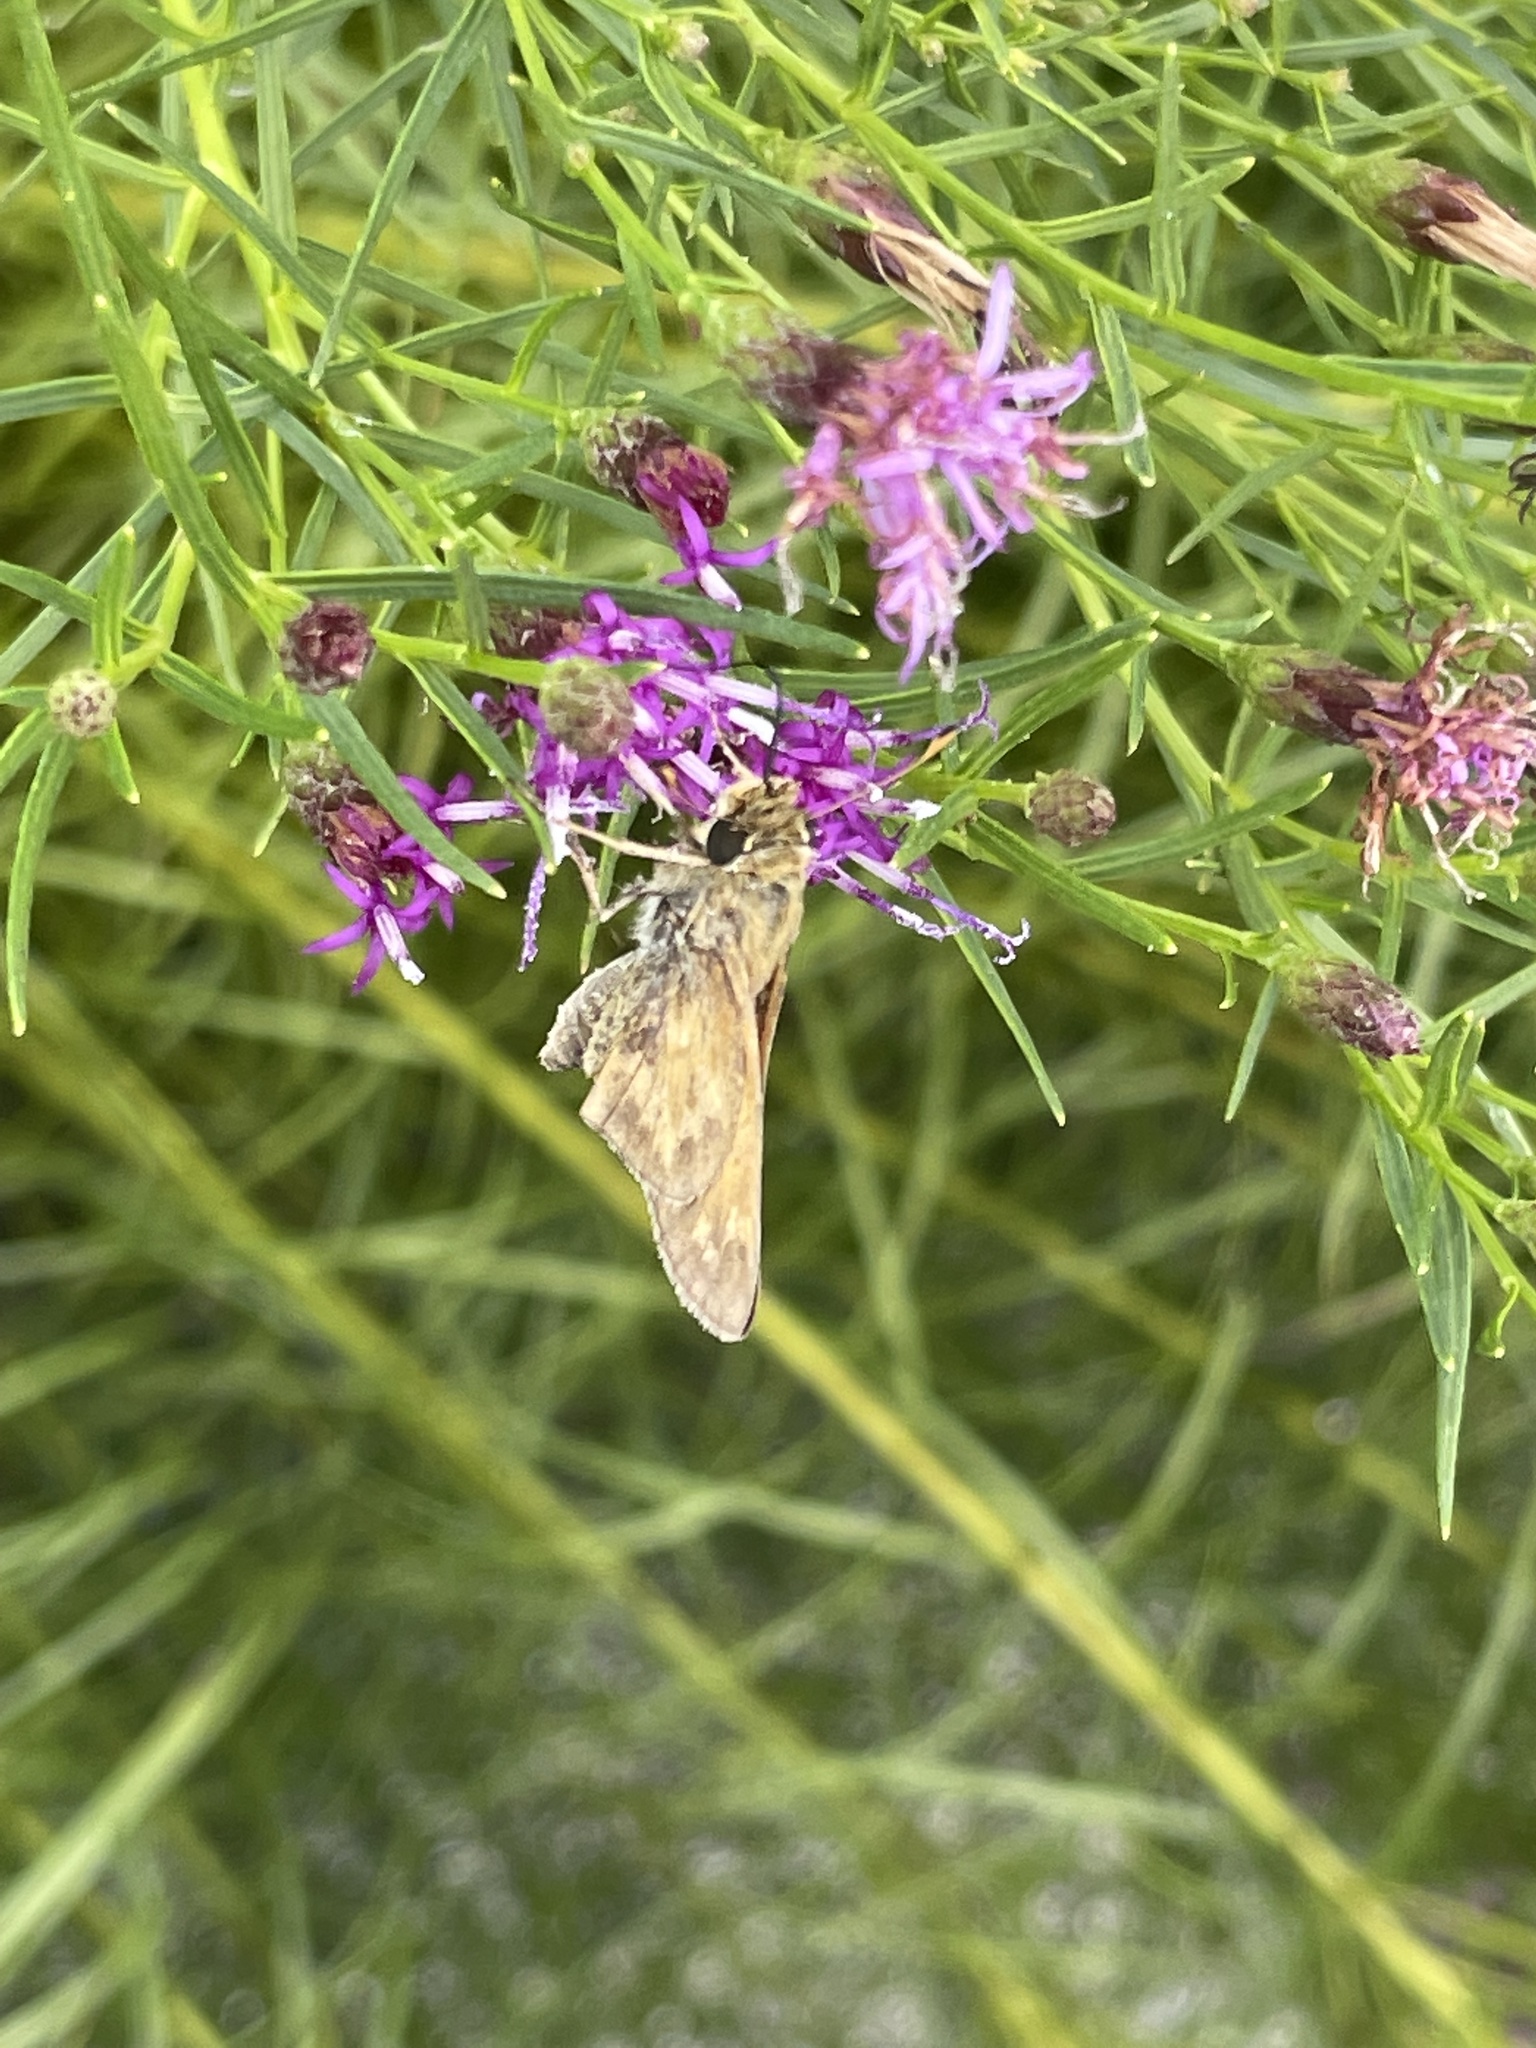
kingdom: Animalia
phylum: Arthropoda
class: Insecta
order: Lepidoptera
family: Hesperiidae
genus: Atalopedes
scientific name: Atalopedes
